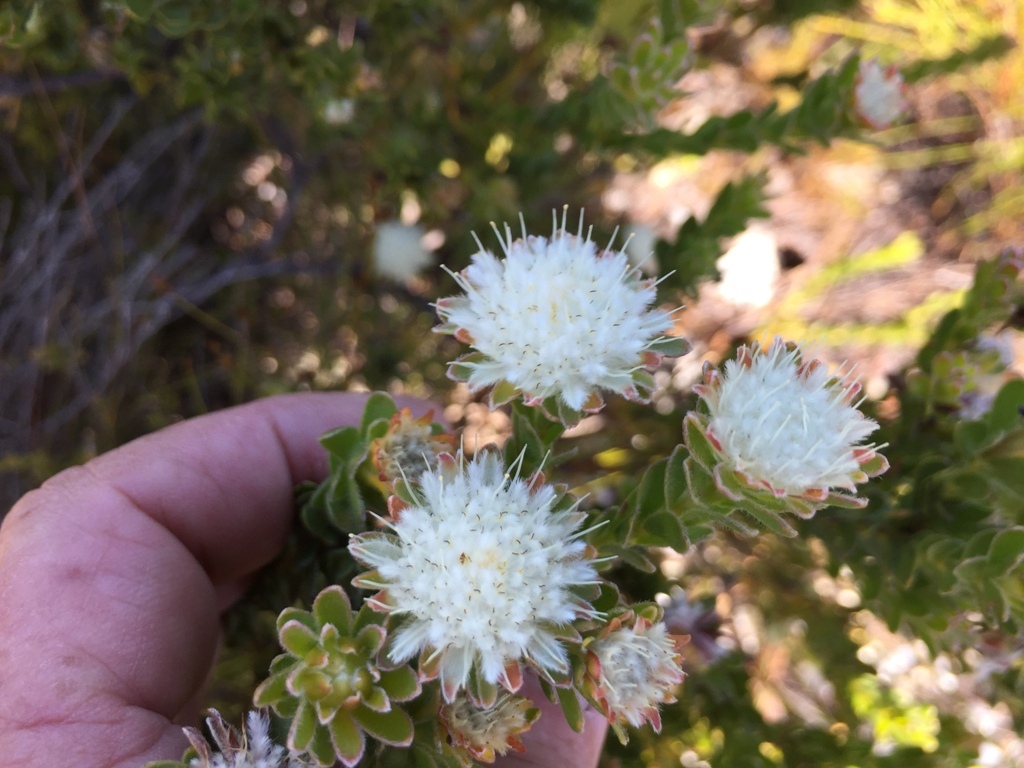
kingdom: Plantae
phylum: Tracheophyta
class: Magnoliopsida
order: Proteales
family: Proteaceae
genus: Diastella
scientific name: Diastella fraterna
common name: Palmiet silkypuff
